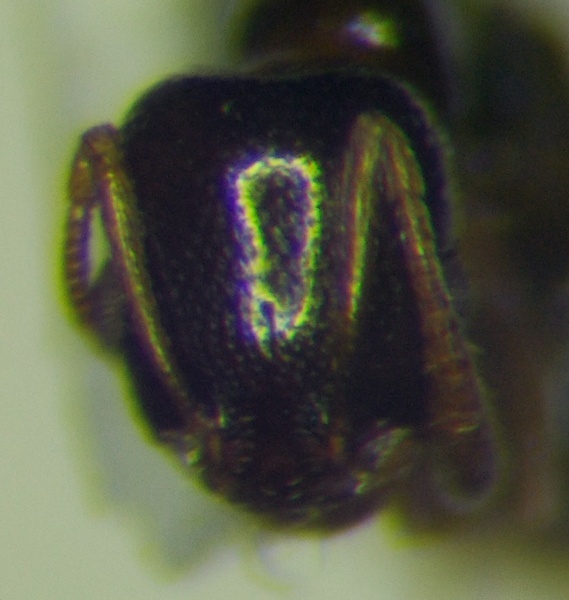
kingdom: Animalia
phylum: Arthropoda
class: Insecta
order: Hymenoptera
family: Formicidae
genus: Cardiocondyla
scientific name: Cardiocondyla ulianini
